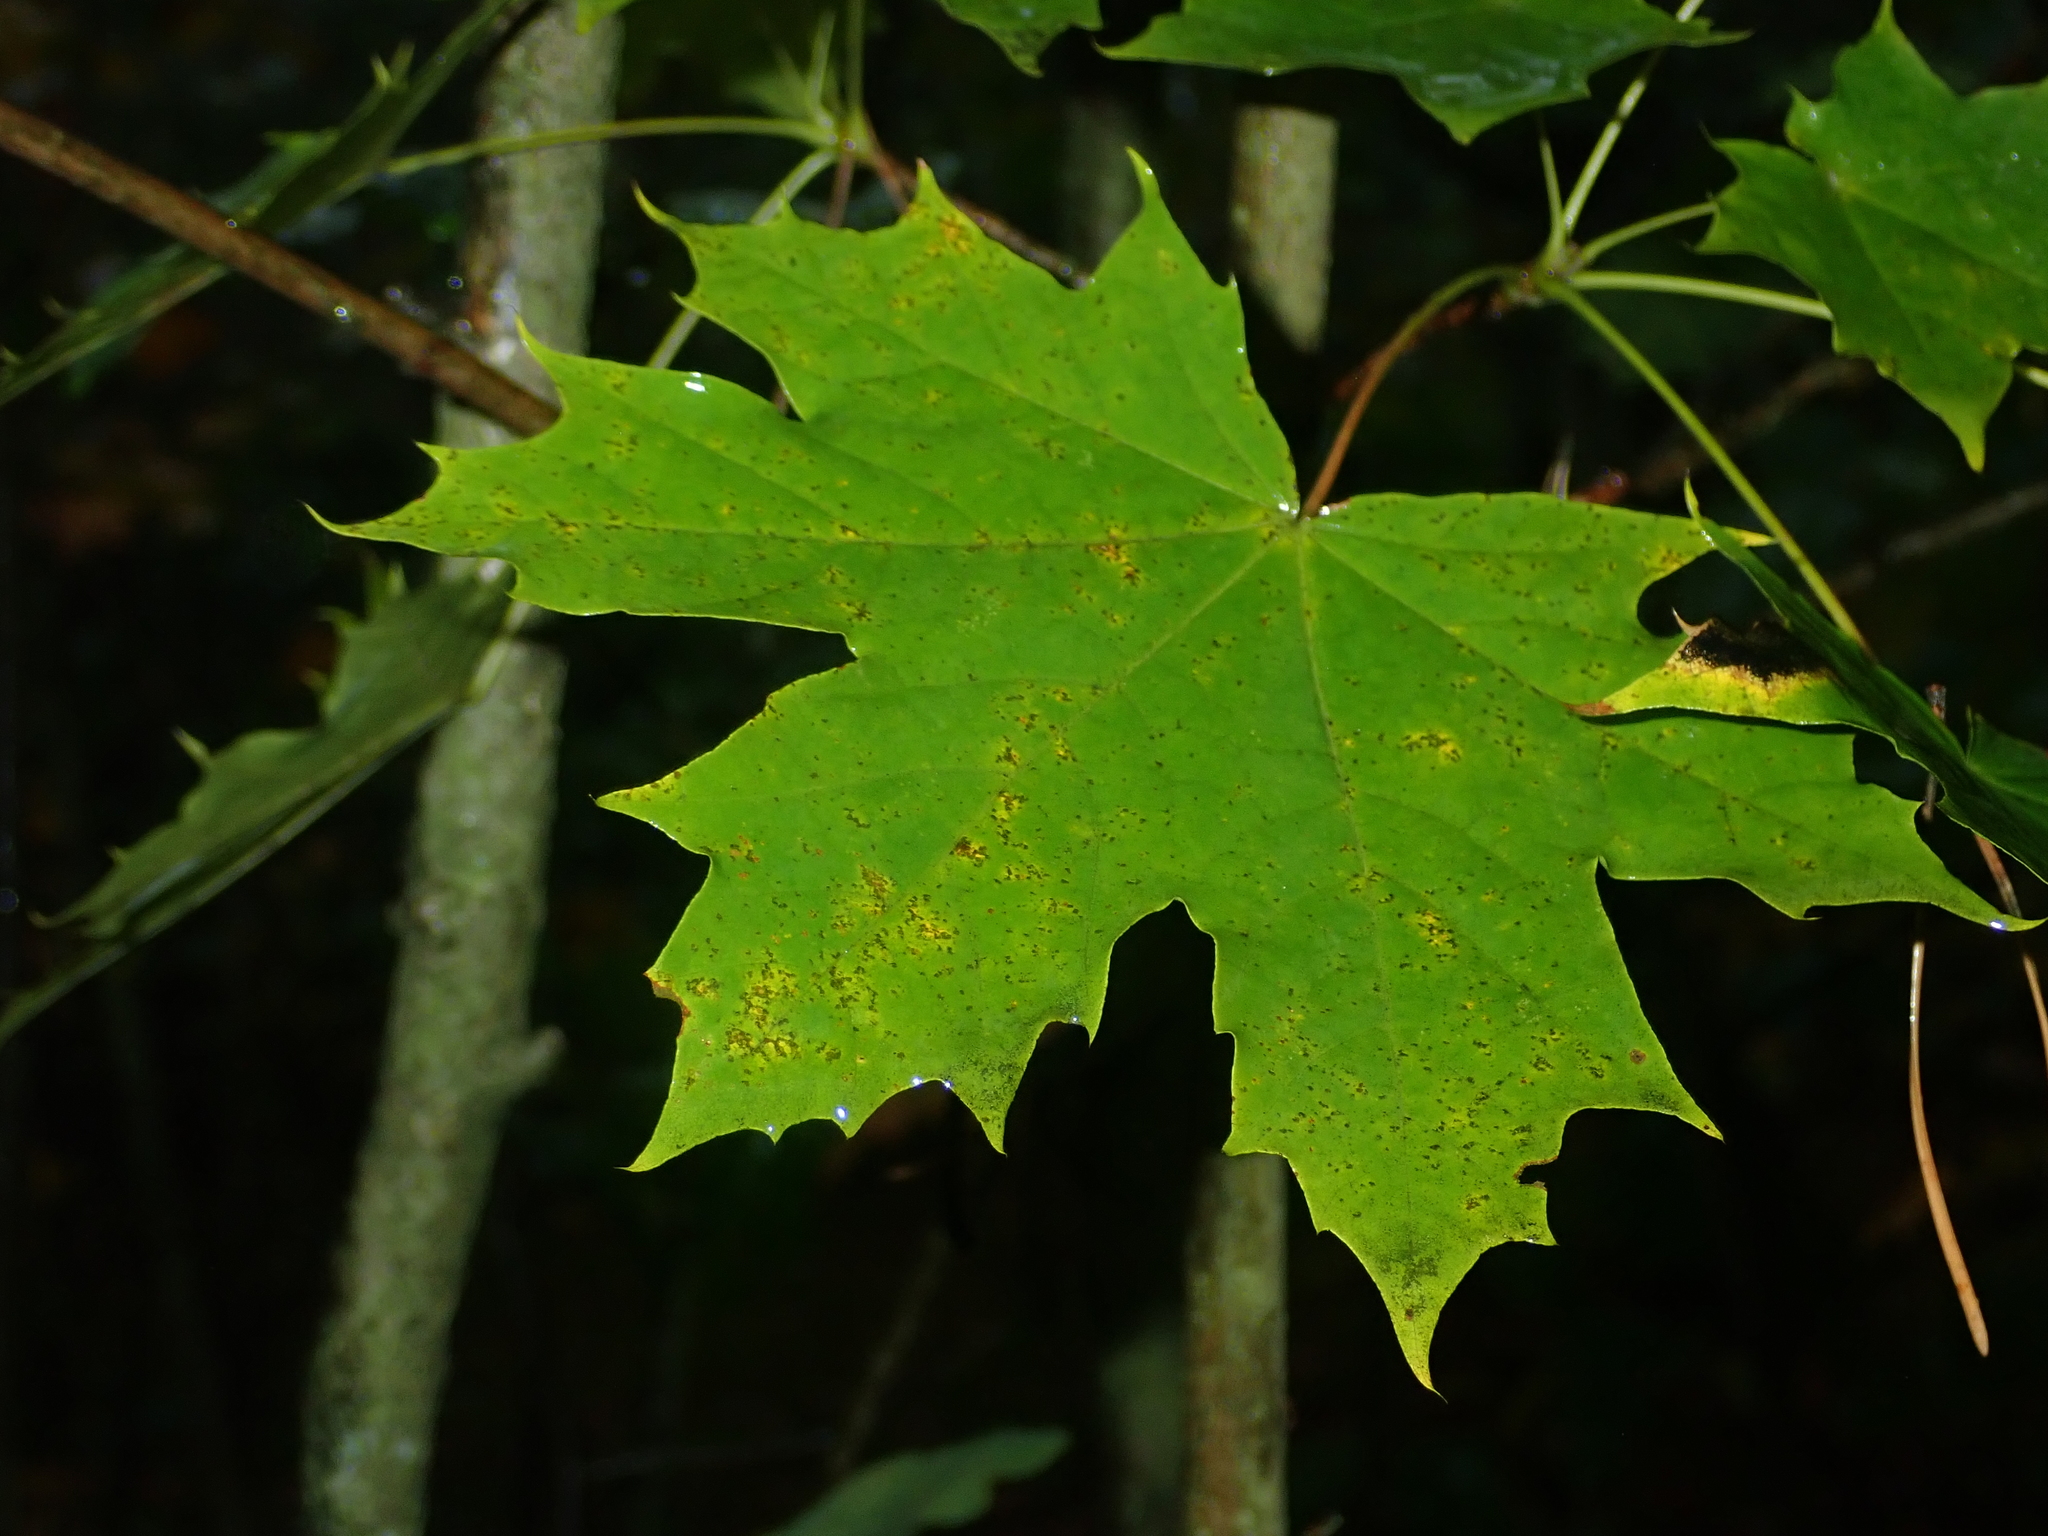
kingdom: Plantae
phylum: Tracheophyta
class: Magnoliopsida
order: Sapindales
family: Sapindaceae
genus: Acer
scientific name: Acer platanoides
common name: Norway maple
